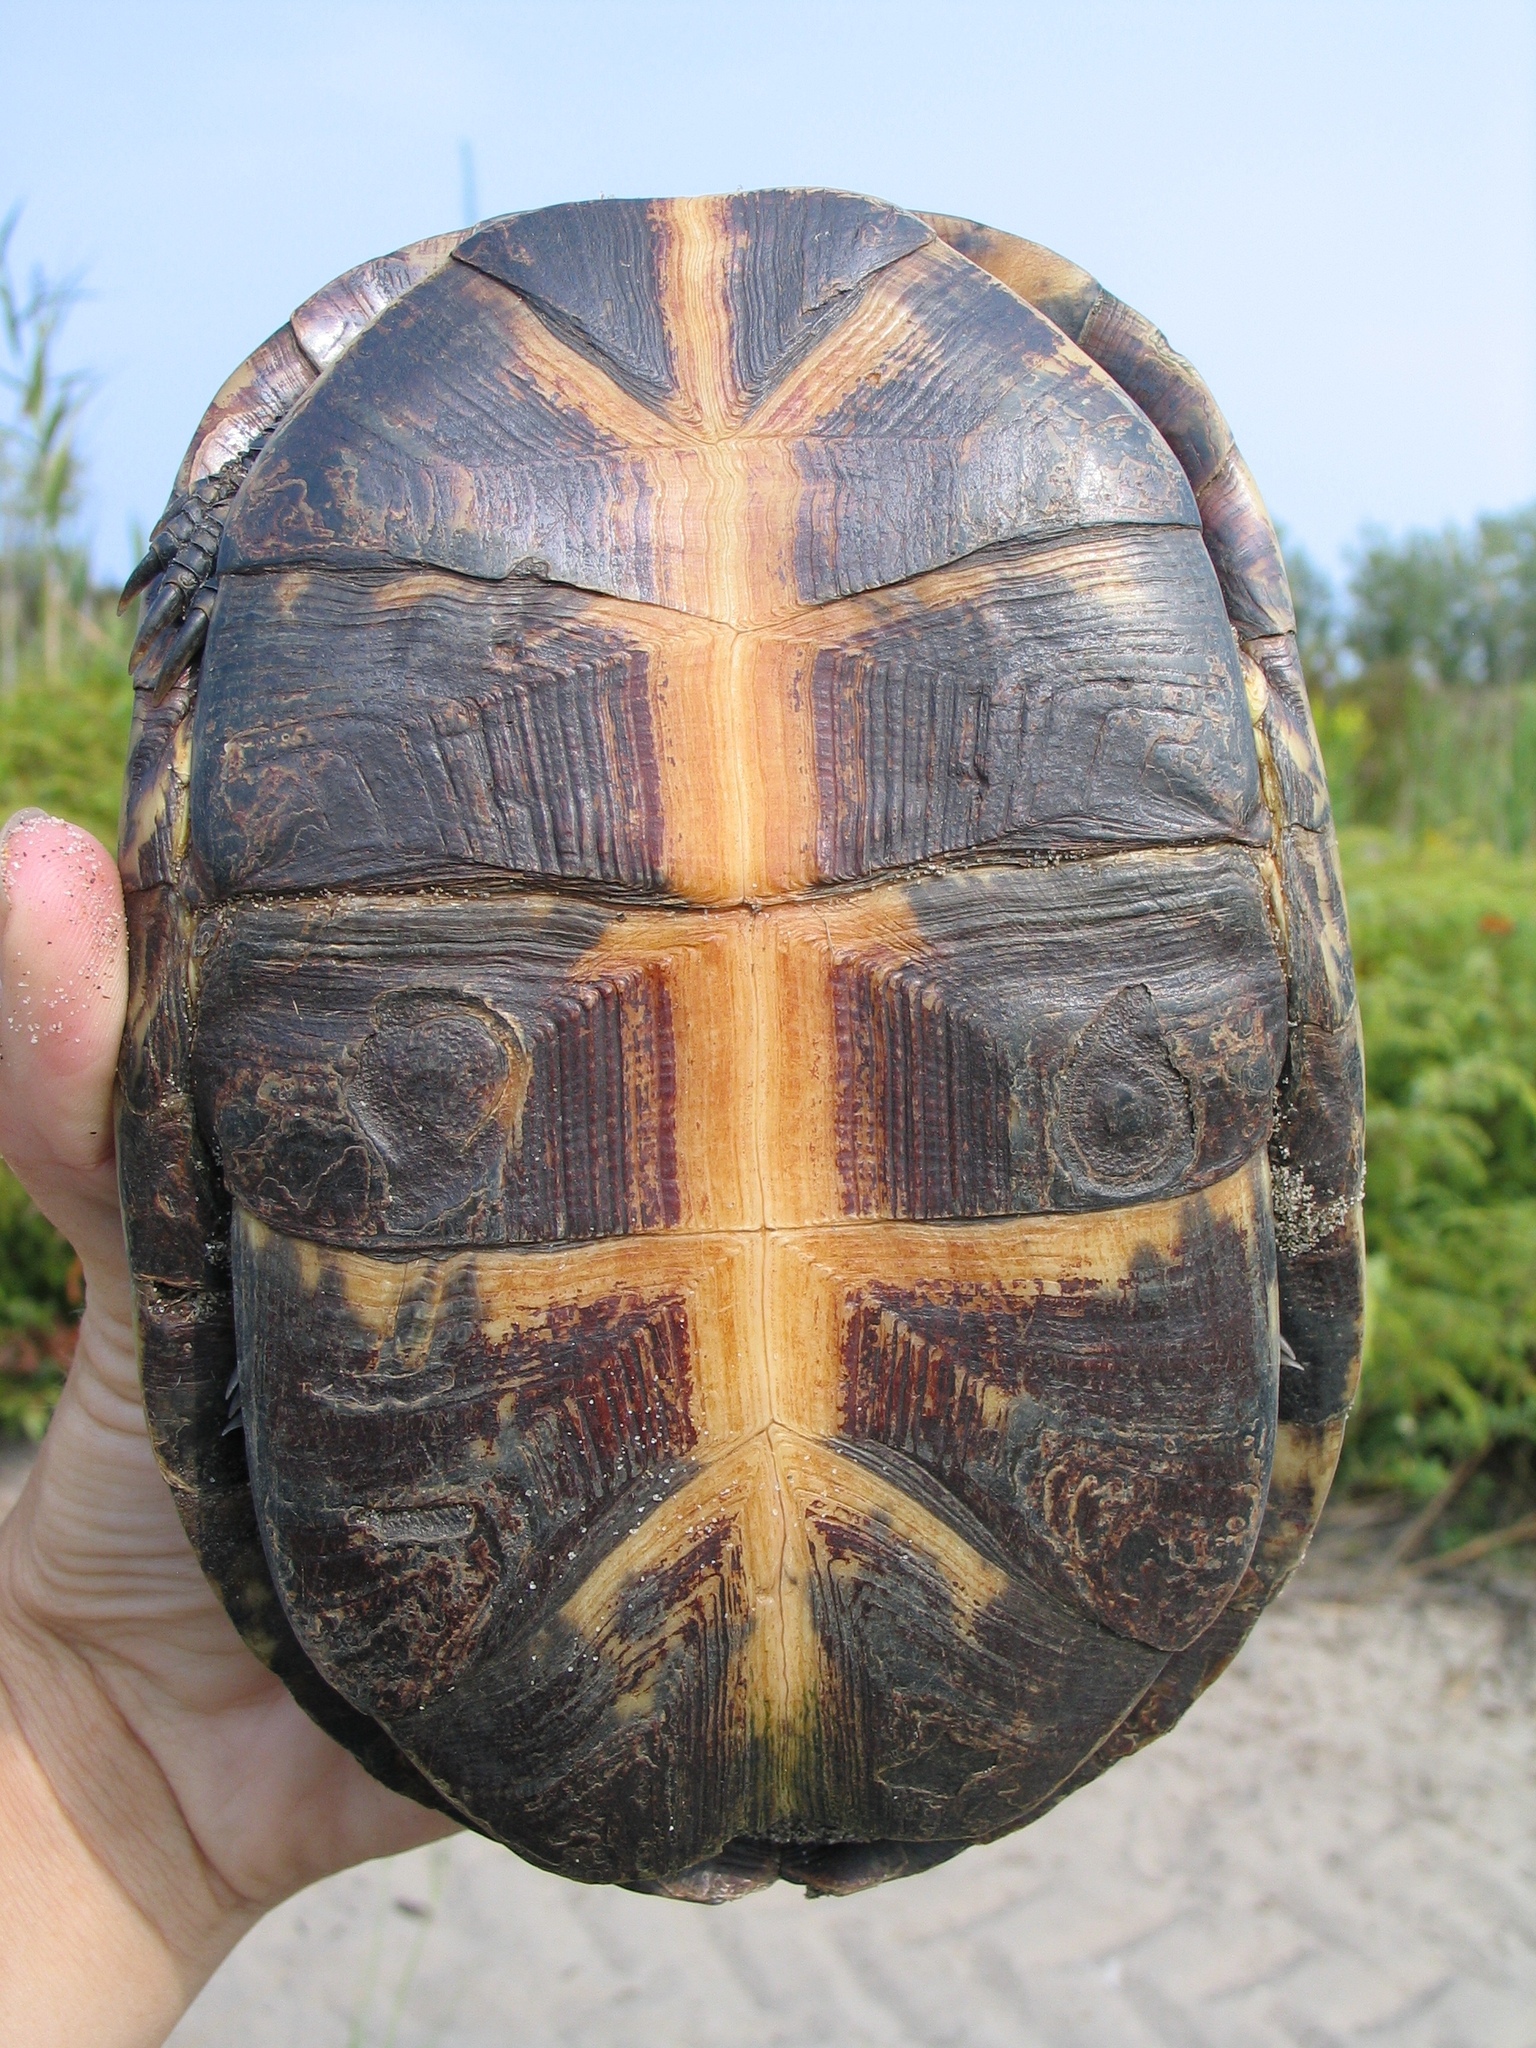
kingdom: Animalia
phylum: Chordata
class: Testudines
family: Emydidae
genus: Emys
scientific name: Emys blandingii
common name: Blanding's turtle
